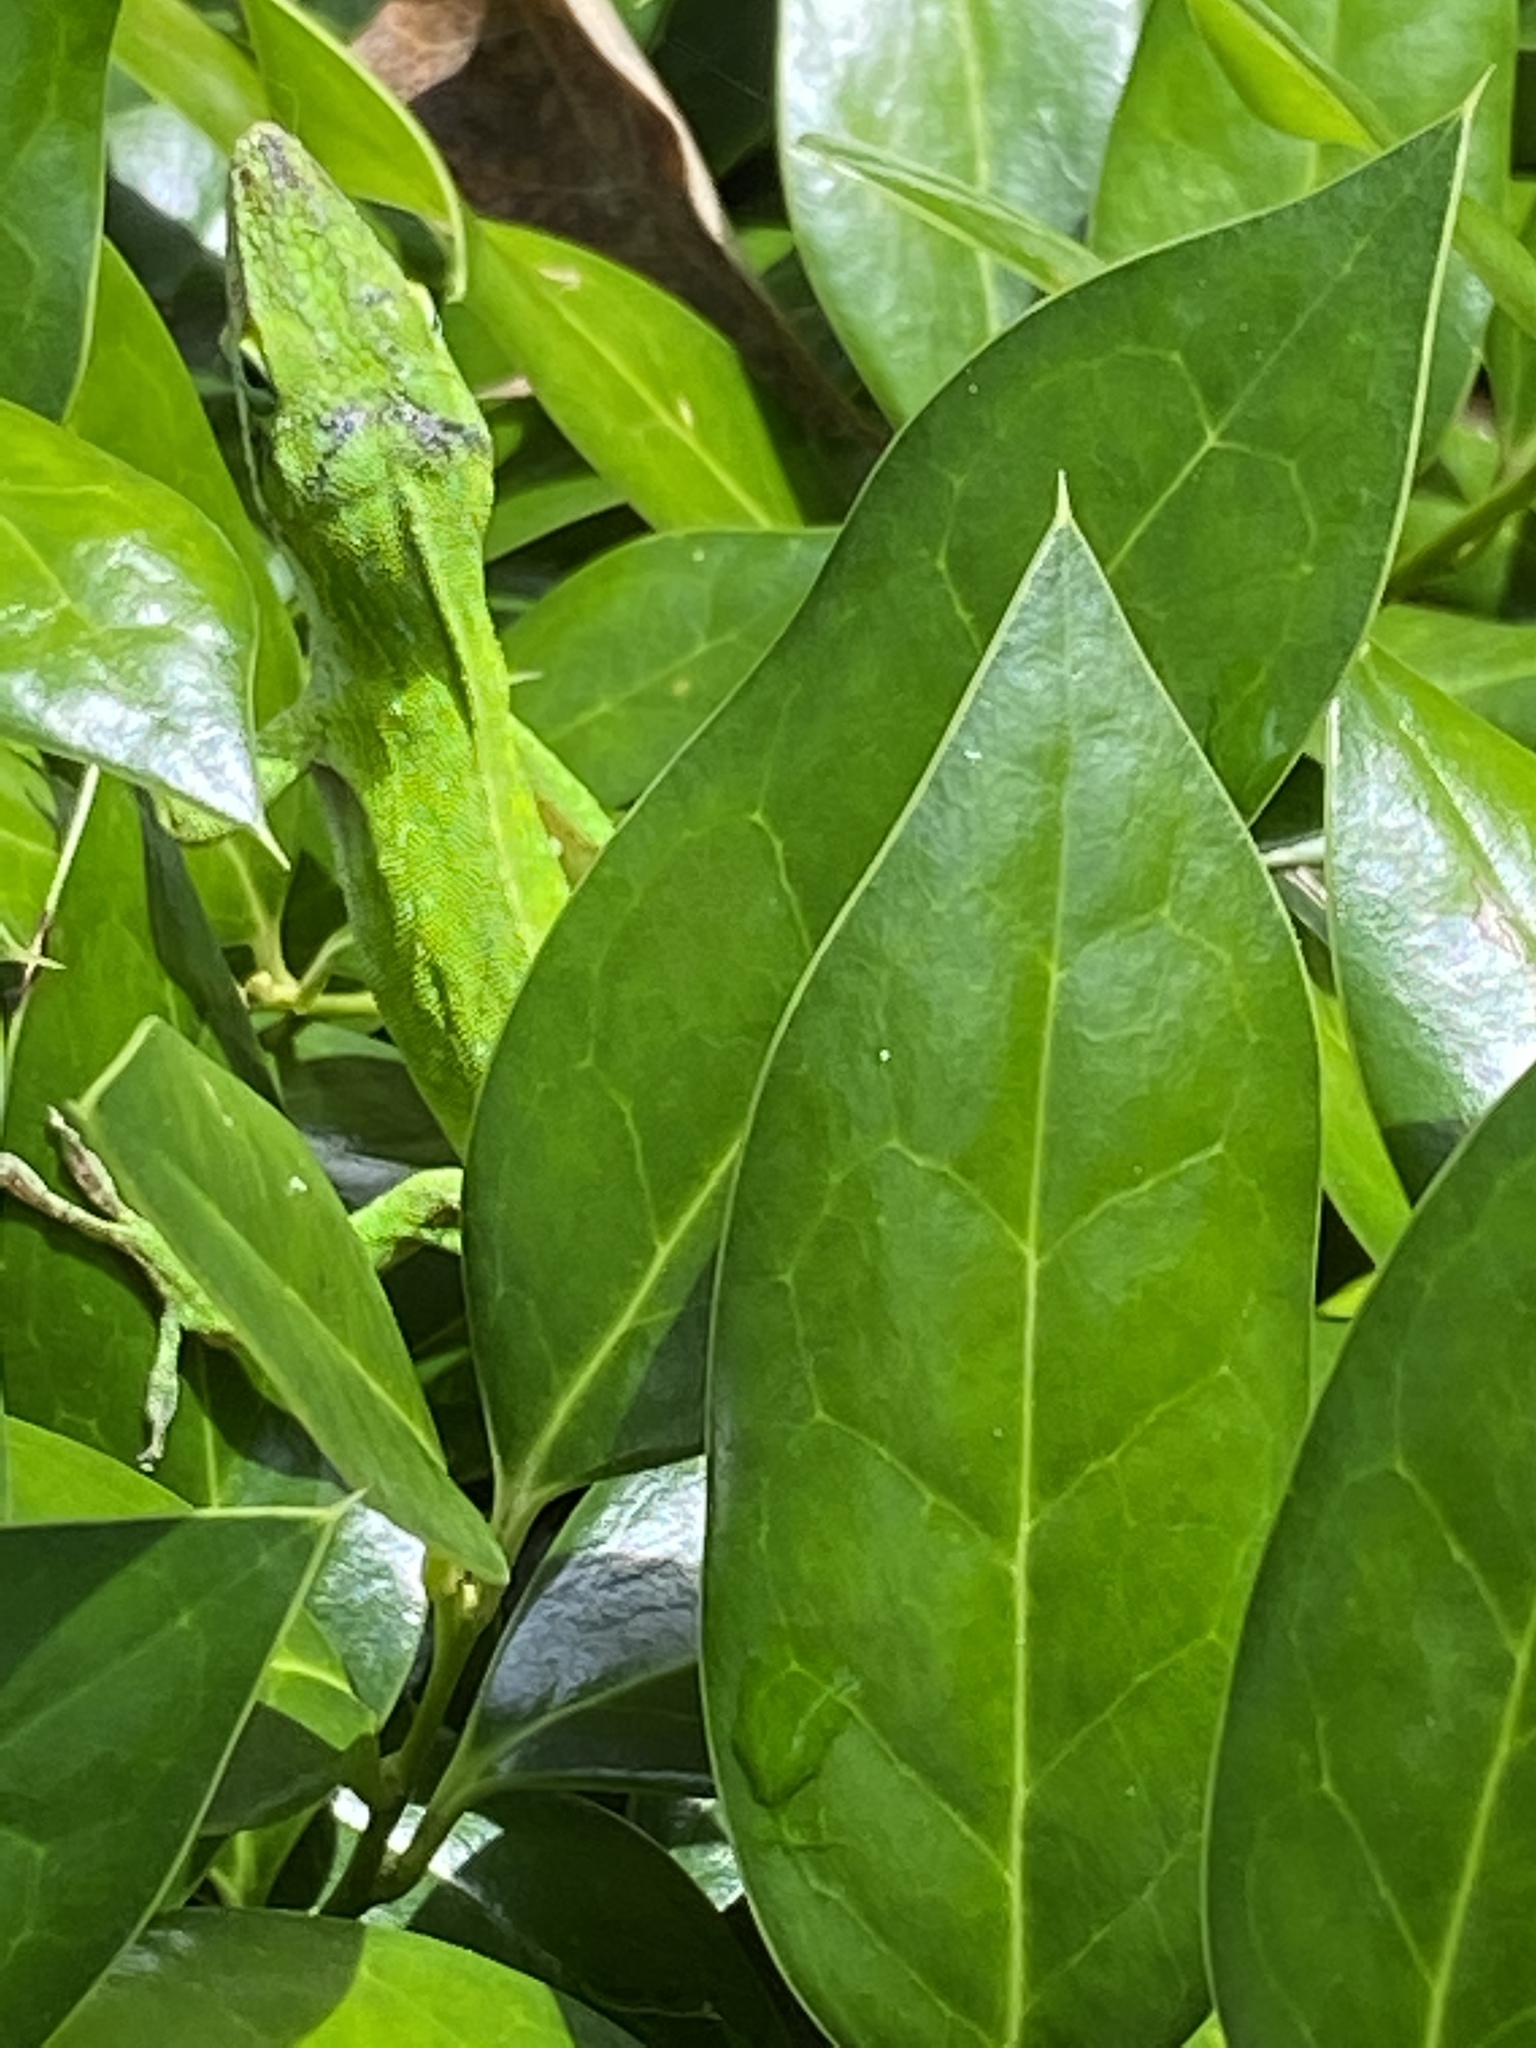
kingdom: Animalia
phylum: Chordata
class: Squamata
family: Dactyloidae
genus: Anolis
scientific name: Anolis carolinensis
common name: Green anole
